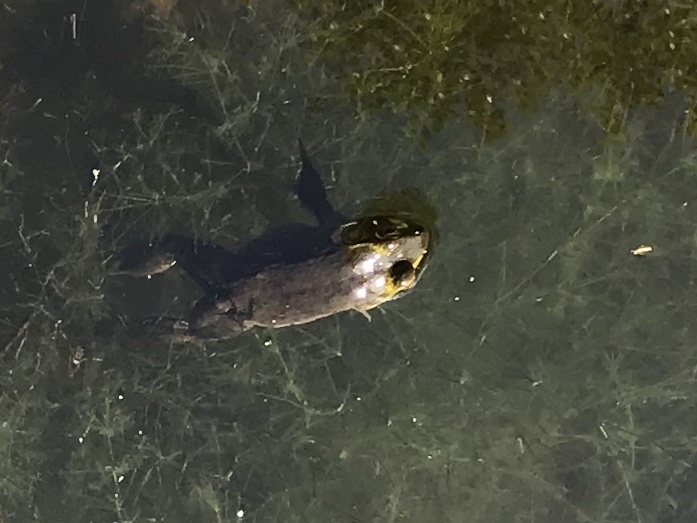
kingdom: Animalia
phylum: Chordata
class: Amphibia
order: Anura
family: Ranidae
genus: Lithobates
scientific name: Lithobates clamitans
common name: Green frog
